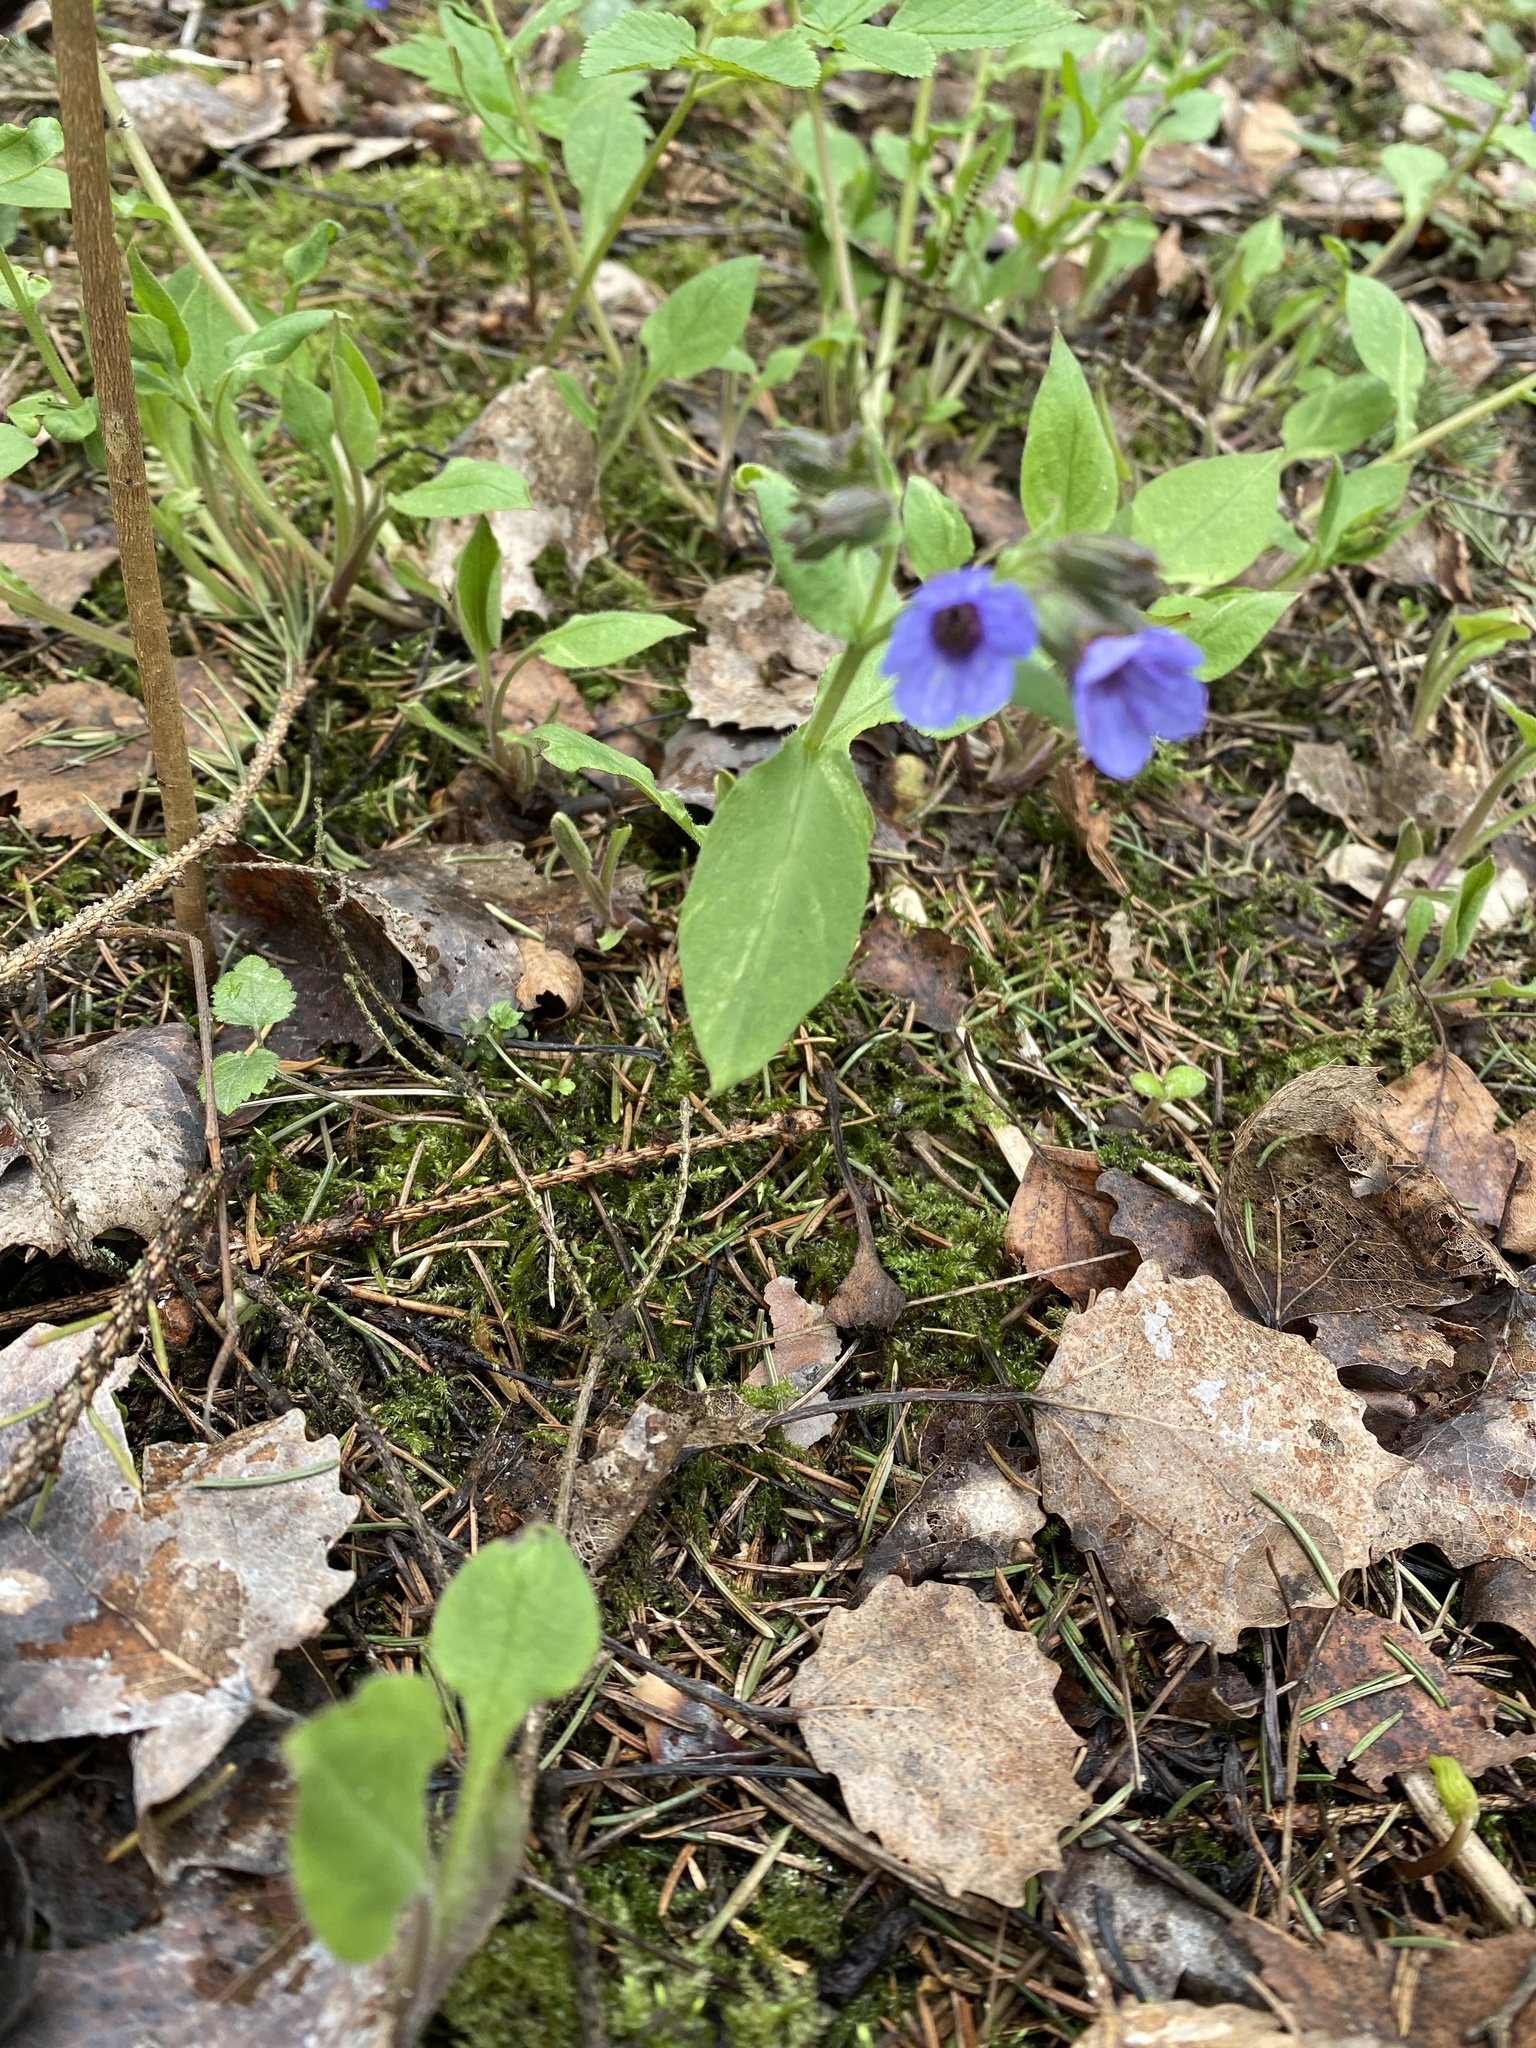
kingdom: Plantae
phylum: Tracheophyta
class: Magnoliopsida
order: Boraginales
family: Boraginaceae
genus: Pulmonaria
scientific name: Pulmonaria obscura
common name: Suffolk lungwort
